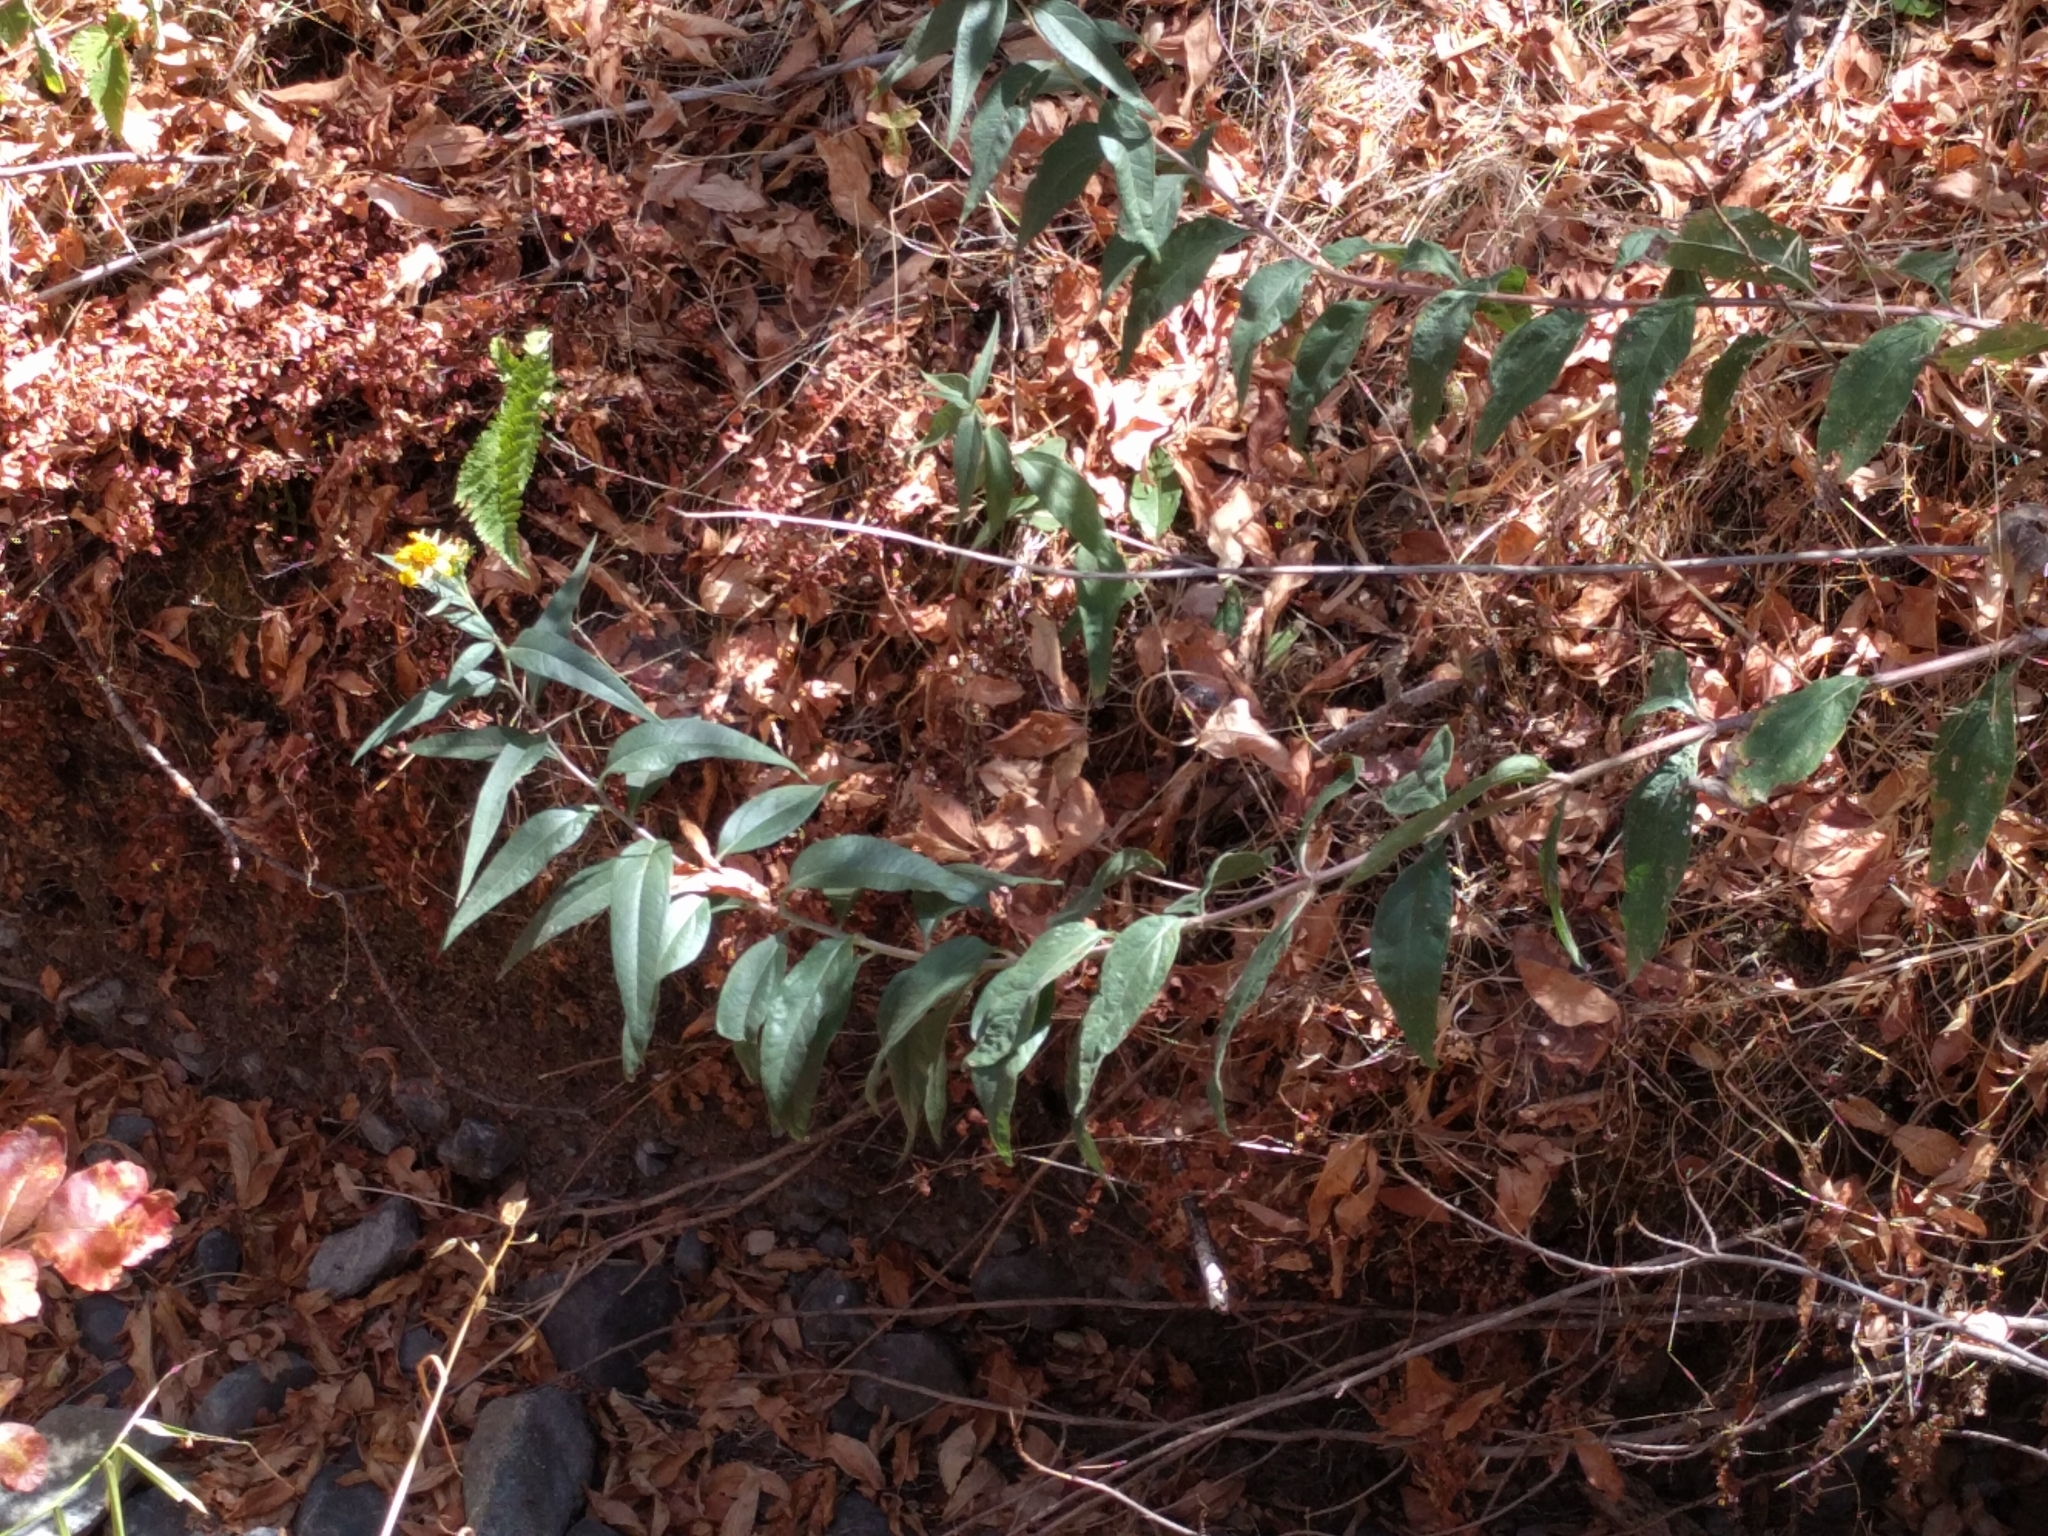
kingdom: Plantae
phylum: Tracheophyta
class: Magnoliopsida
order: Asterales
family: Asteraceae
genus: Helianthus
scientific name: Helianthus californicus
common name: California sunflower
